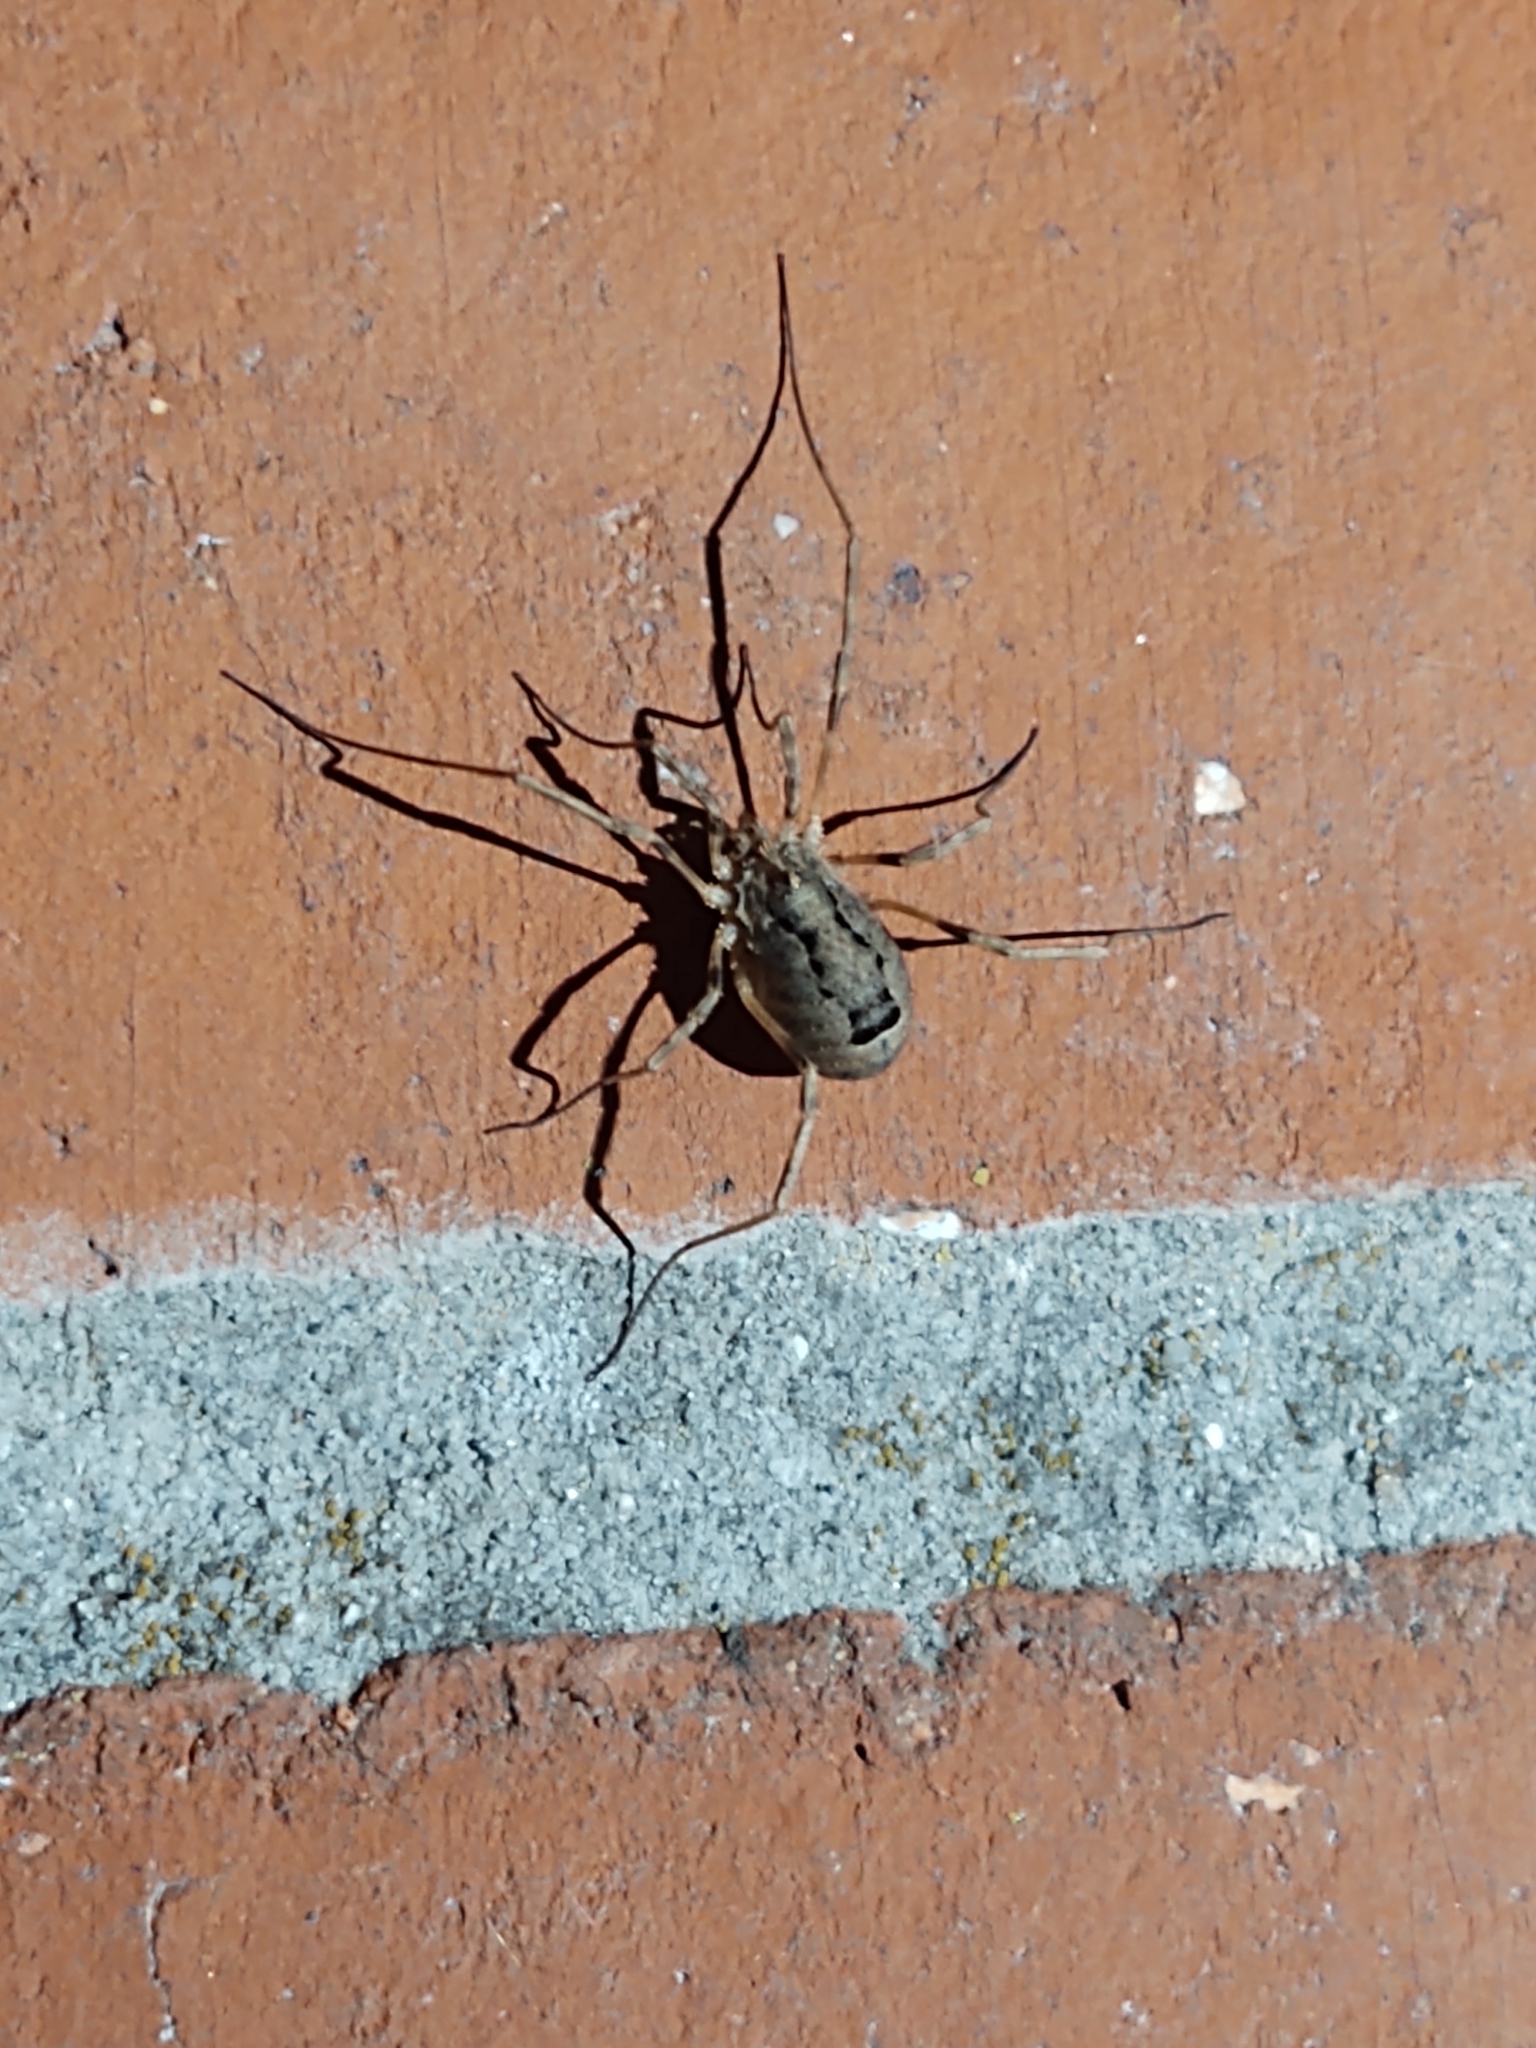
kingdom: Animalia
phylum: Arthropoda
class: Arachnida
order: Opiliones
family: Phalangiidae
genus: Odiellus
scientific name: Odiellus spinosus
